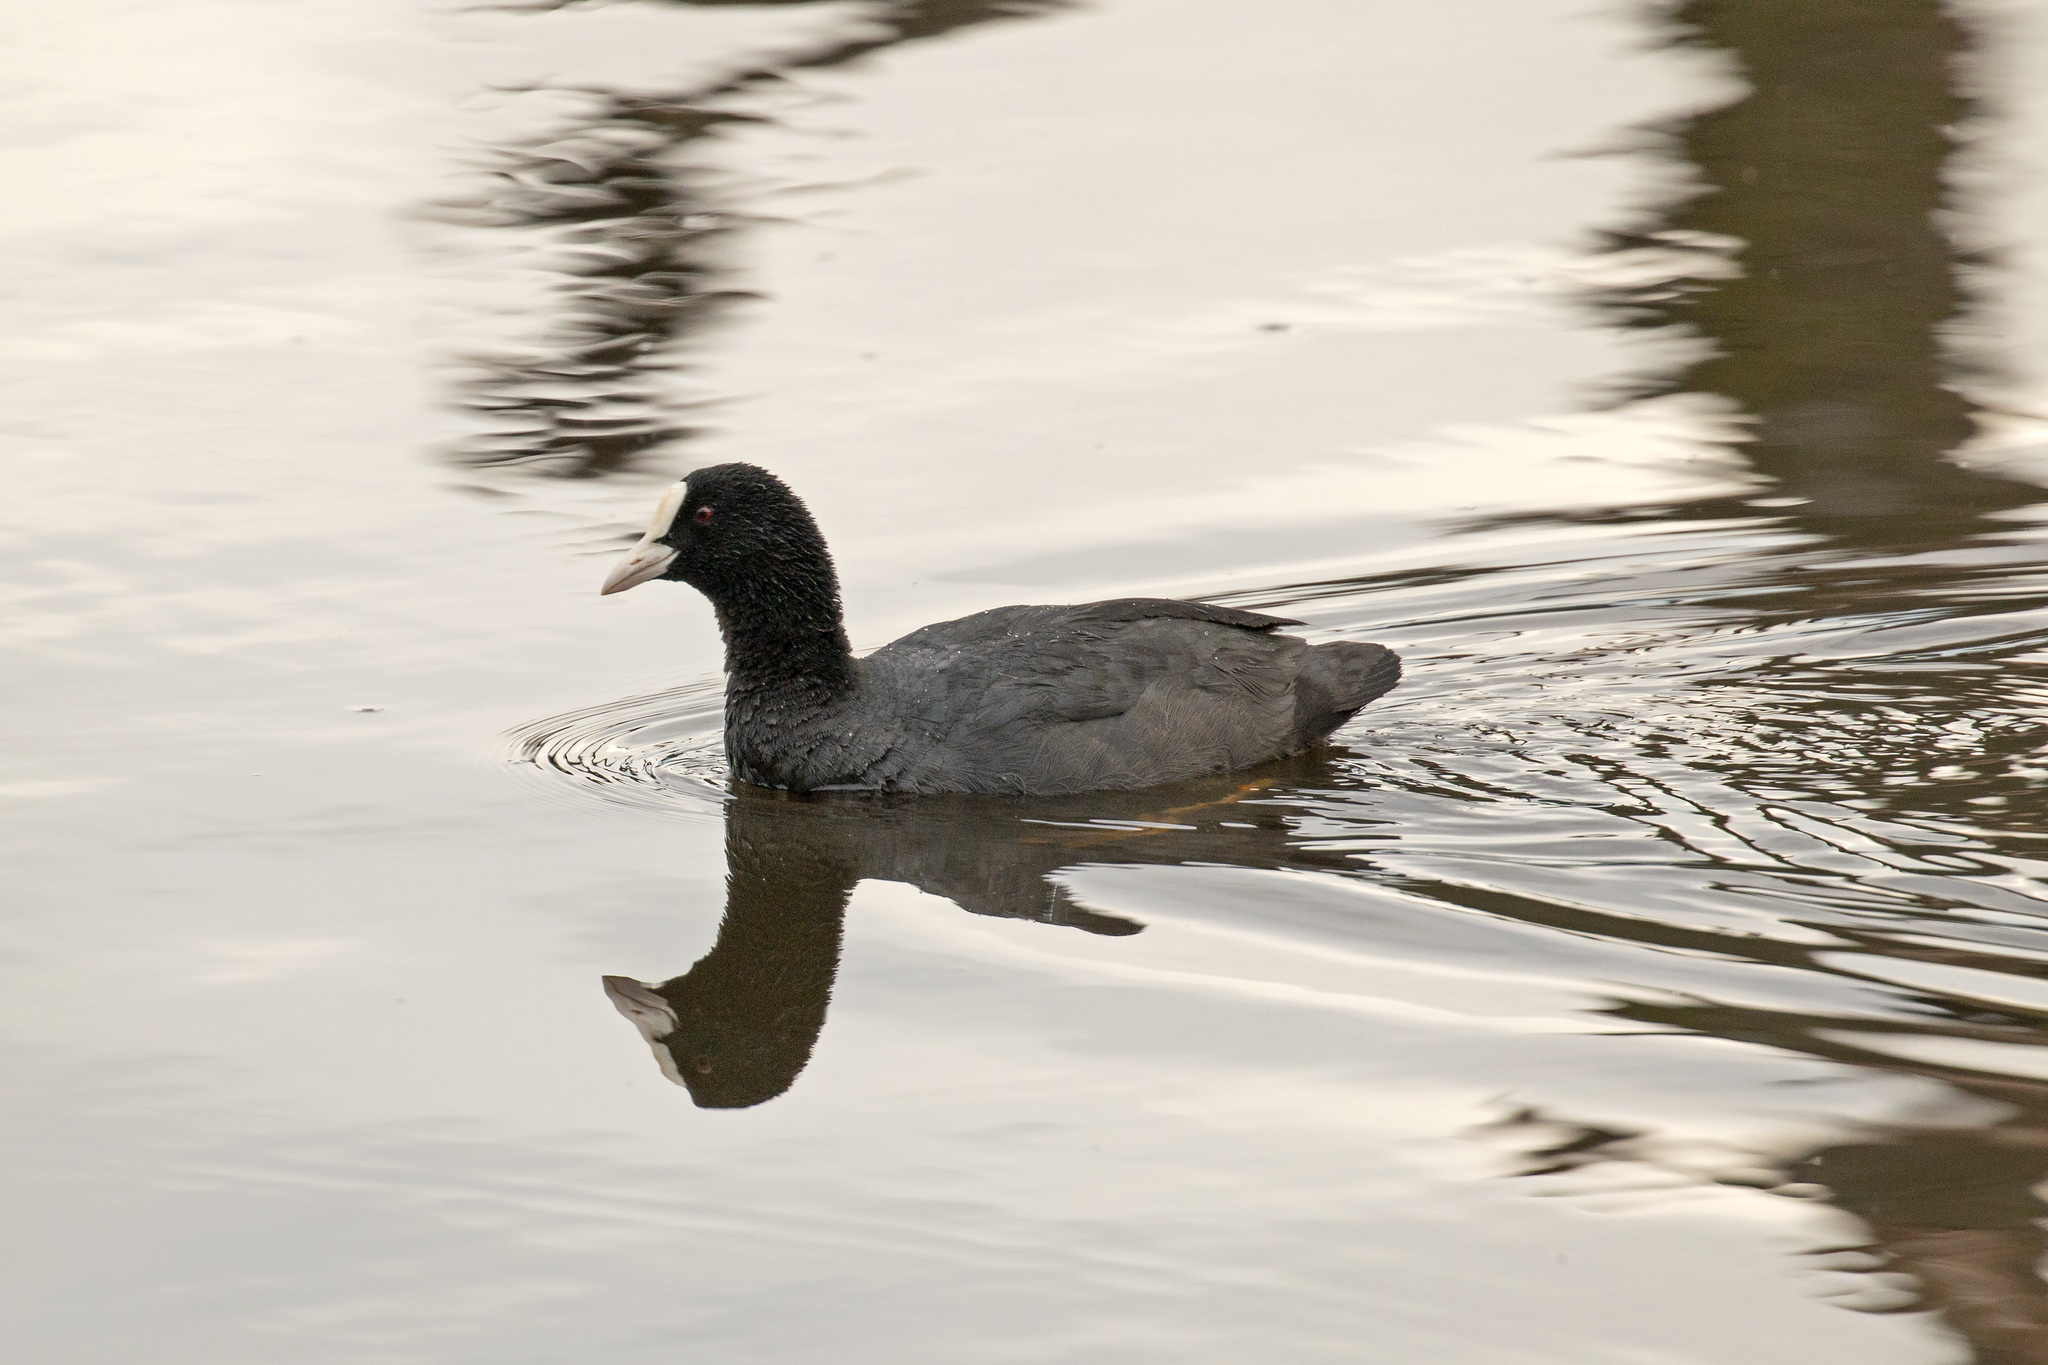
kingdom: Animalia
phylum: Chordata
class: Aves
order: Gruiformes
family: Rallidae
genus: Fulica
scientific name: Fulica atra
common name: Eurasian coot
